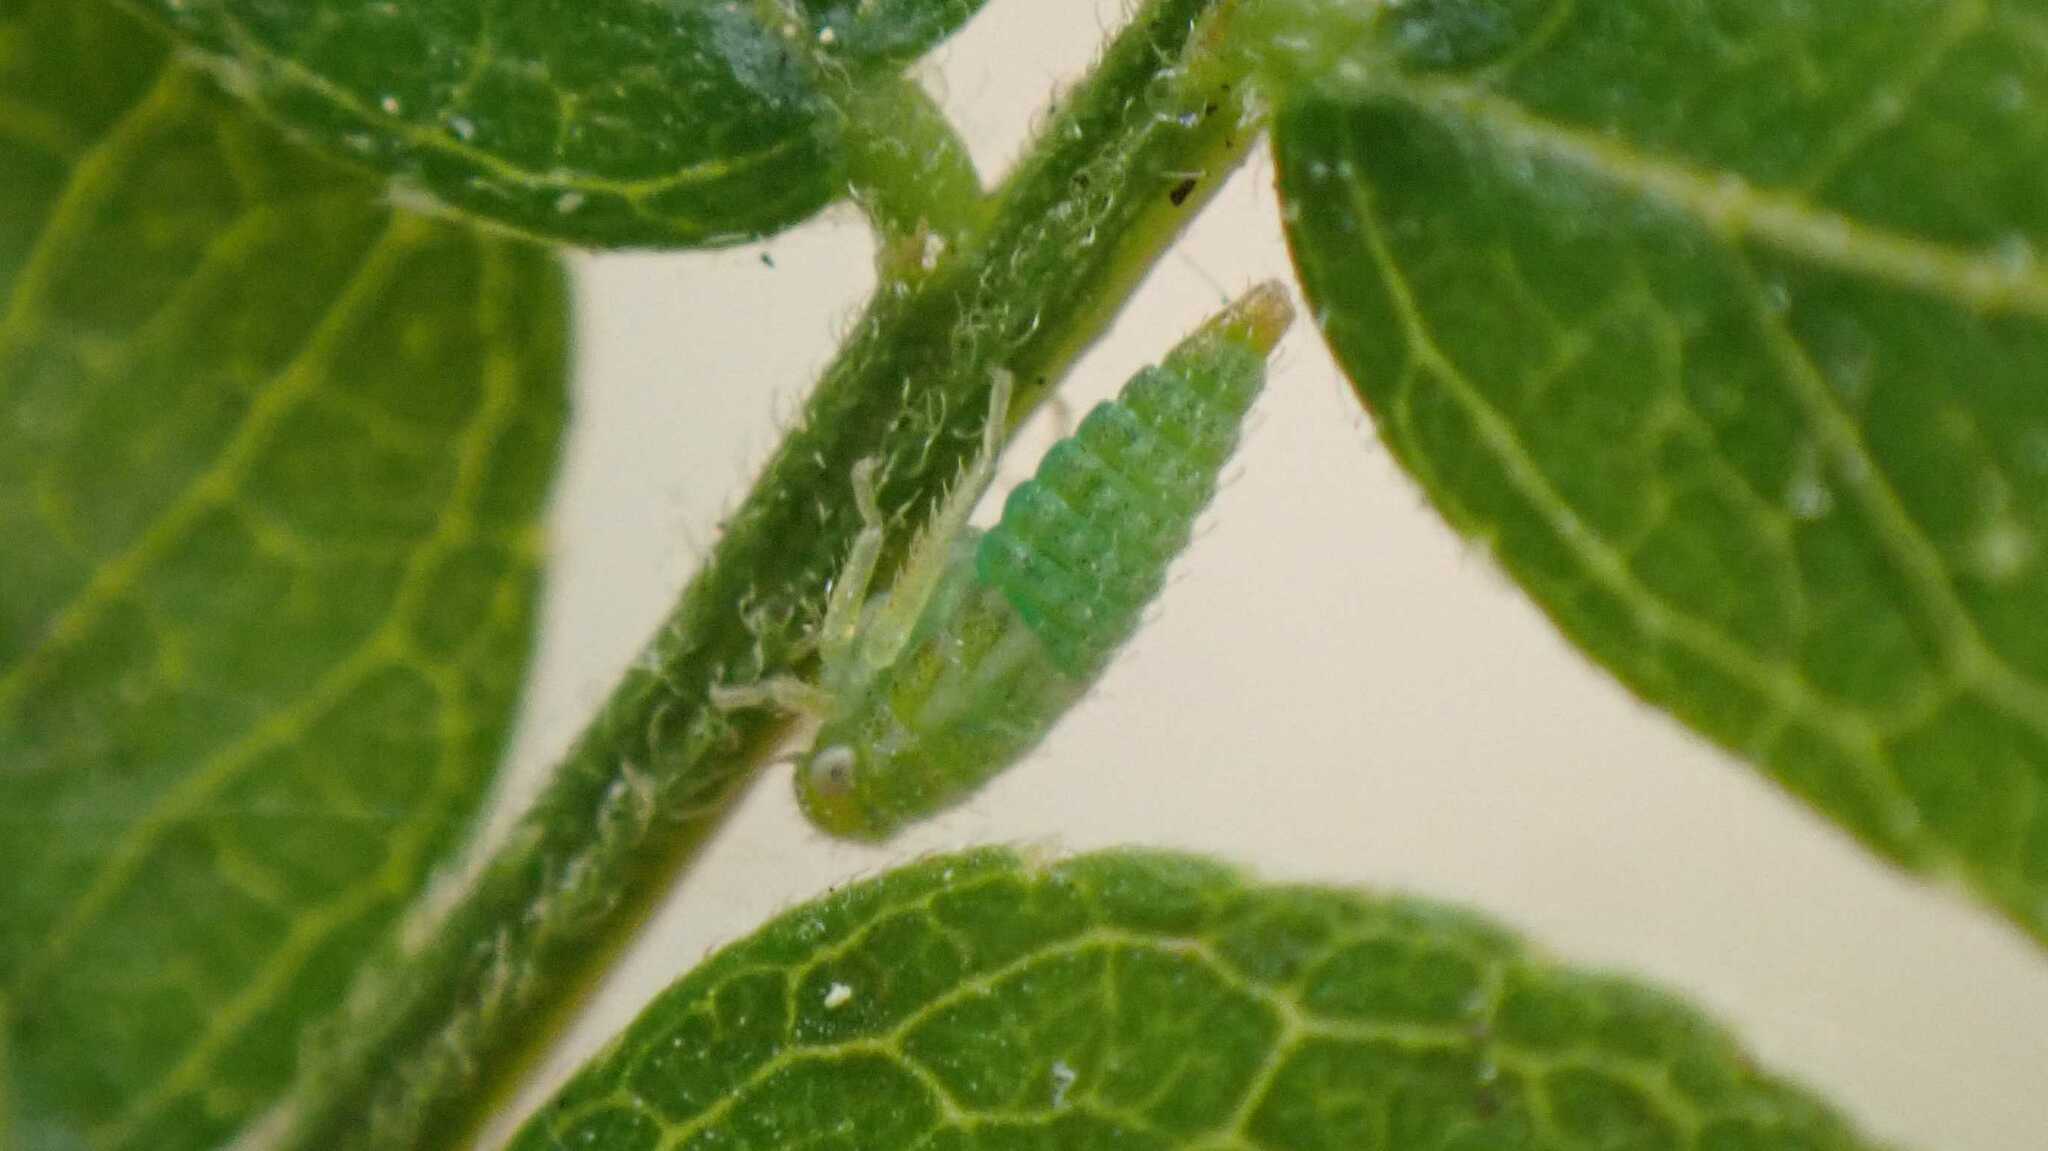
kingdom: Animalia
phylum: Arthropoda
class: Insecta
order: Hemiptera
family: Cicadellidae
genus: Stragania
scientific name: Stragania apicalis
